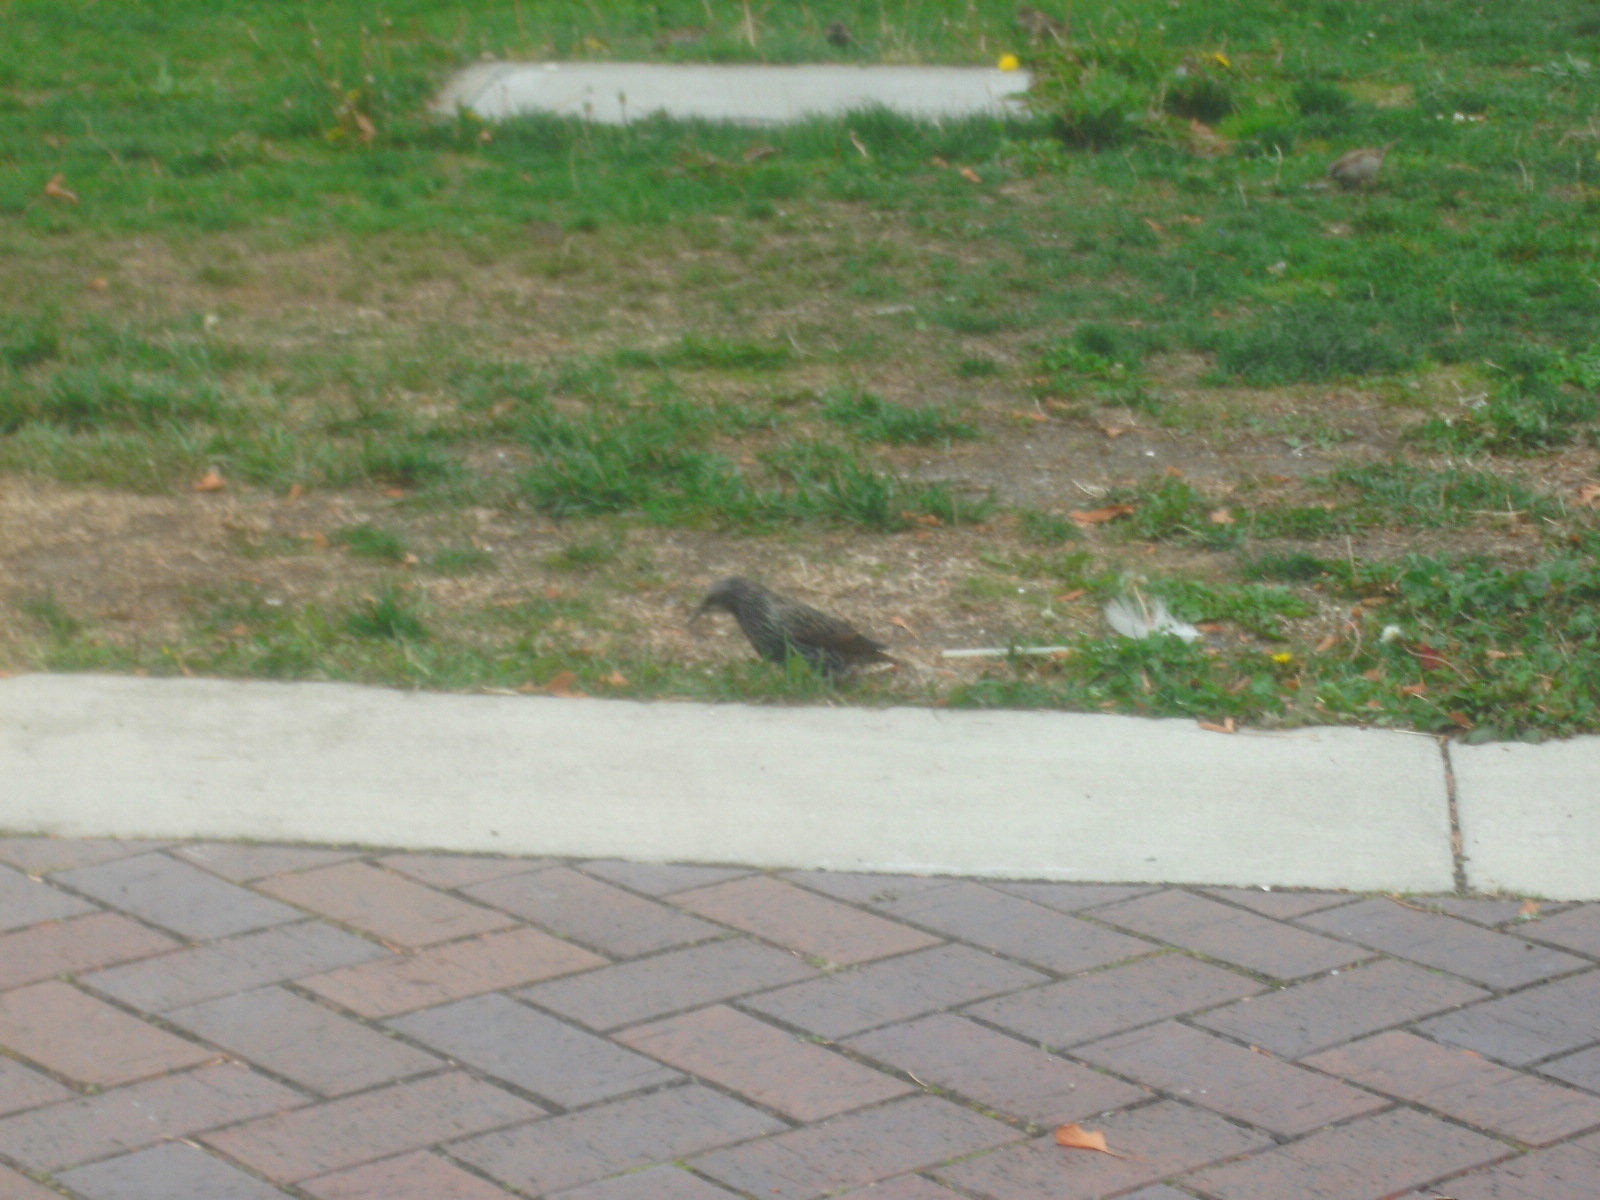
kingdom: Animalia
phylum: Chordata
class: Aves
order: Passeriformes
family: Sturnidae
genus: Sturnus
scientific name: Sturnus vulgaris
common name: Common starling
